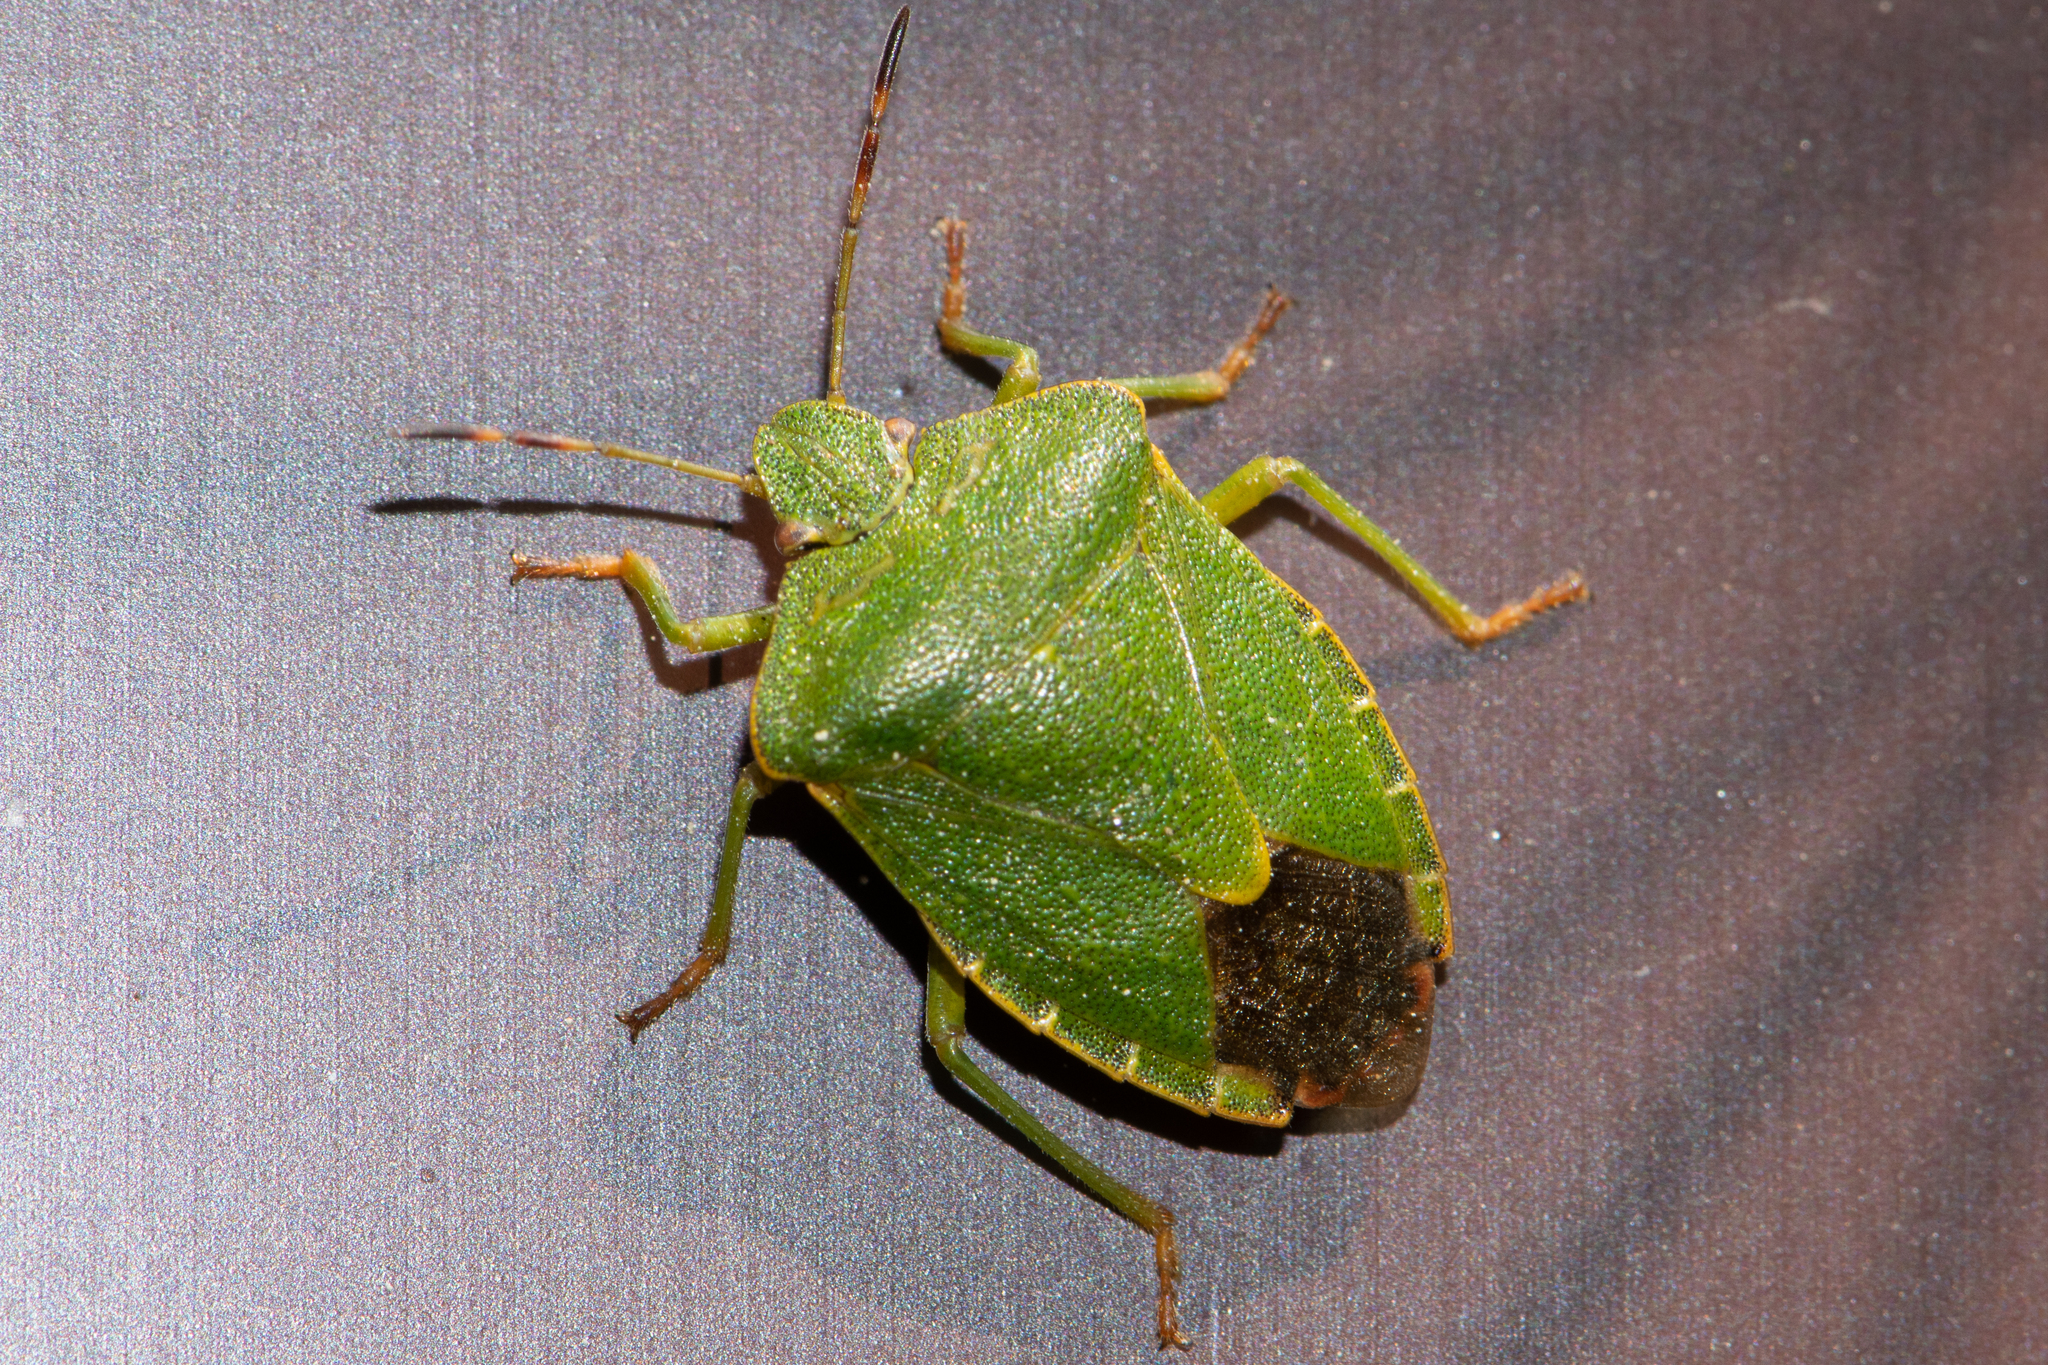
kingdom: Animalia
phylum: Arthropoda
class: Insecta
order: Hemiptera
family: Pentatomidae
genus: Palomena
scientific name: Palomena prasina
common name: Green shieldbug
